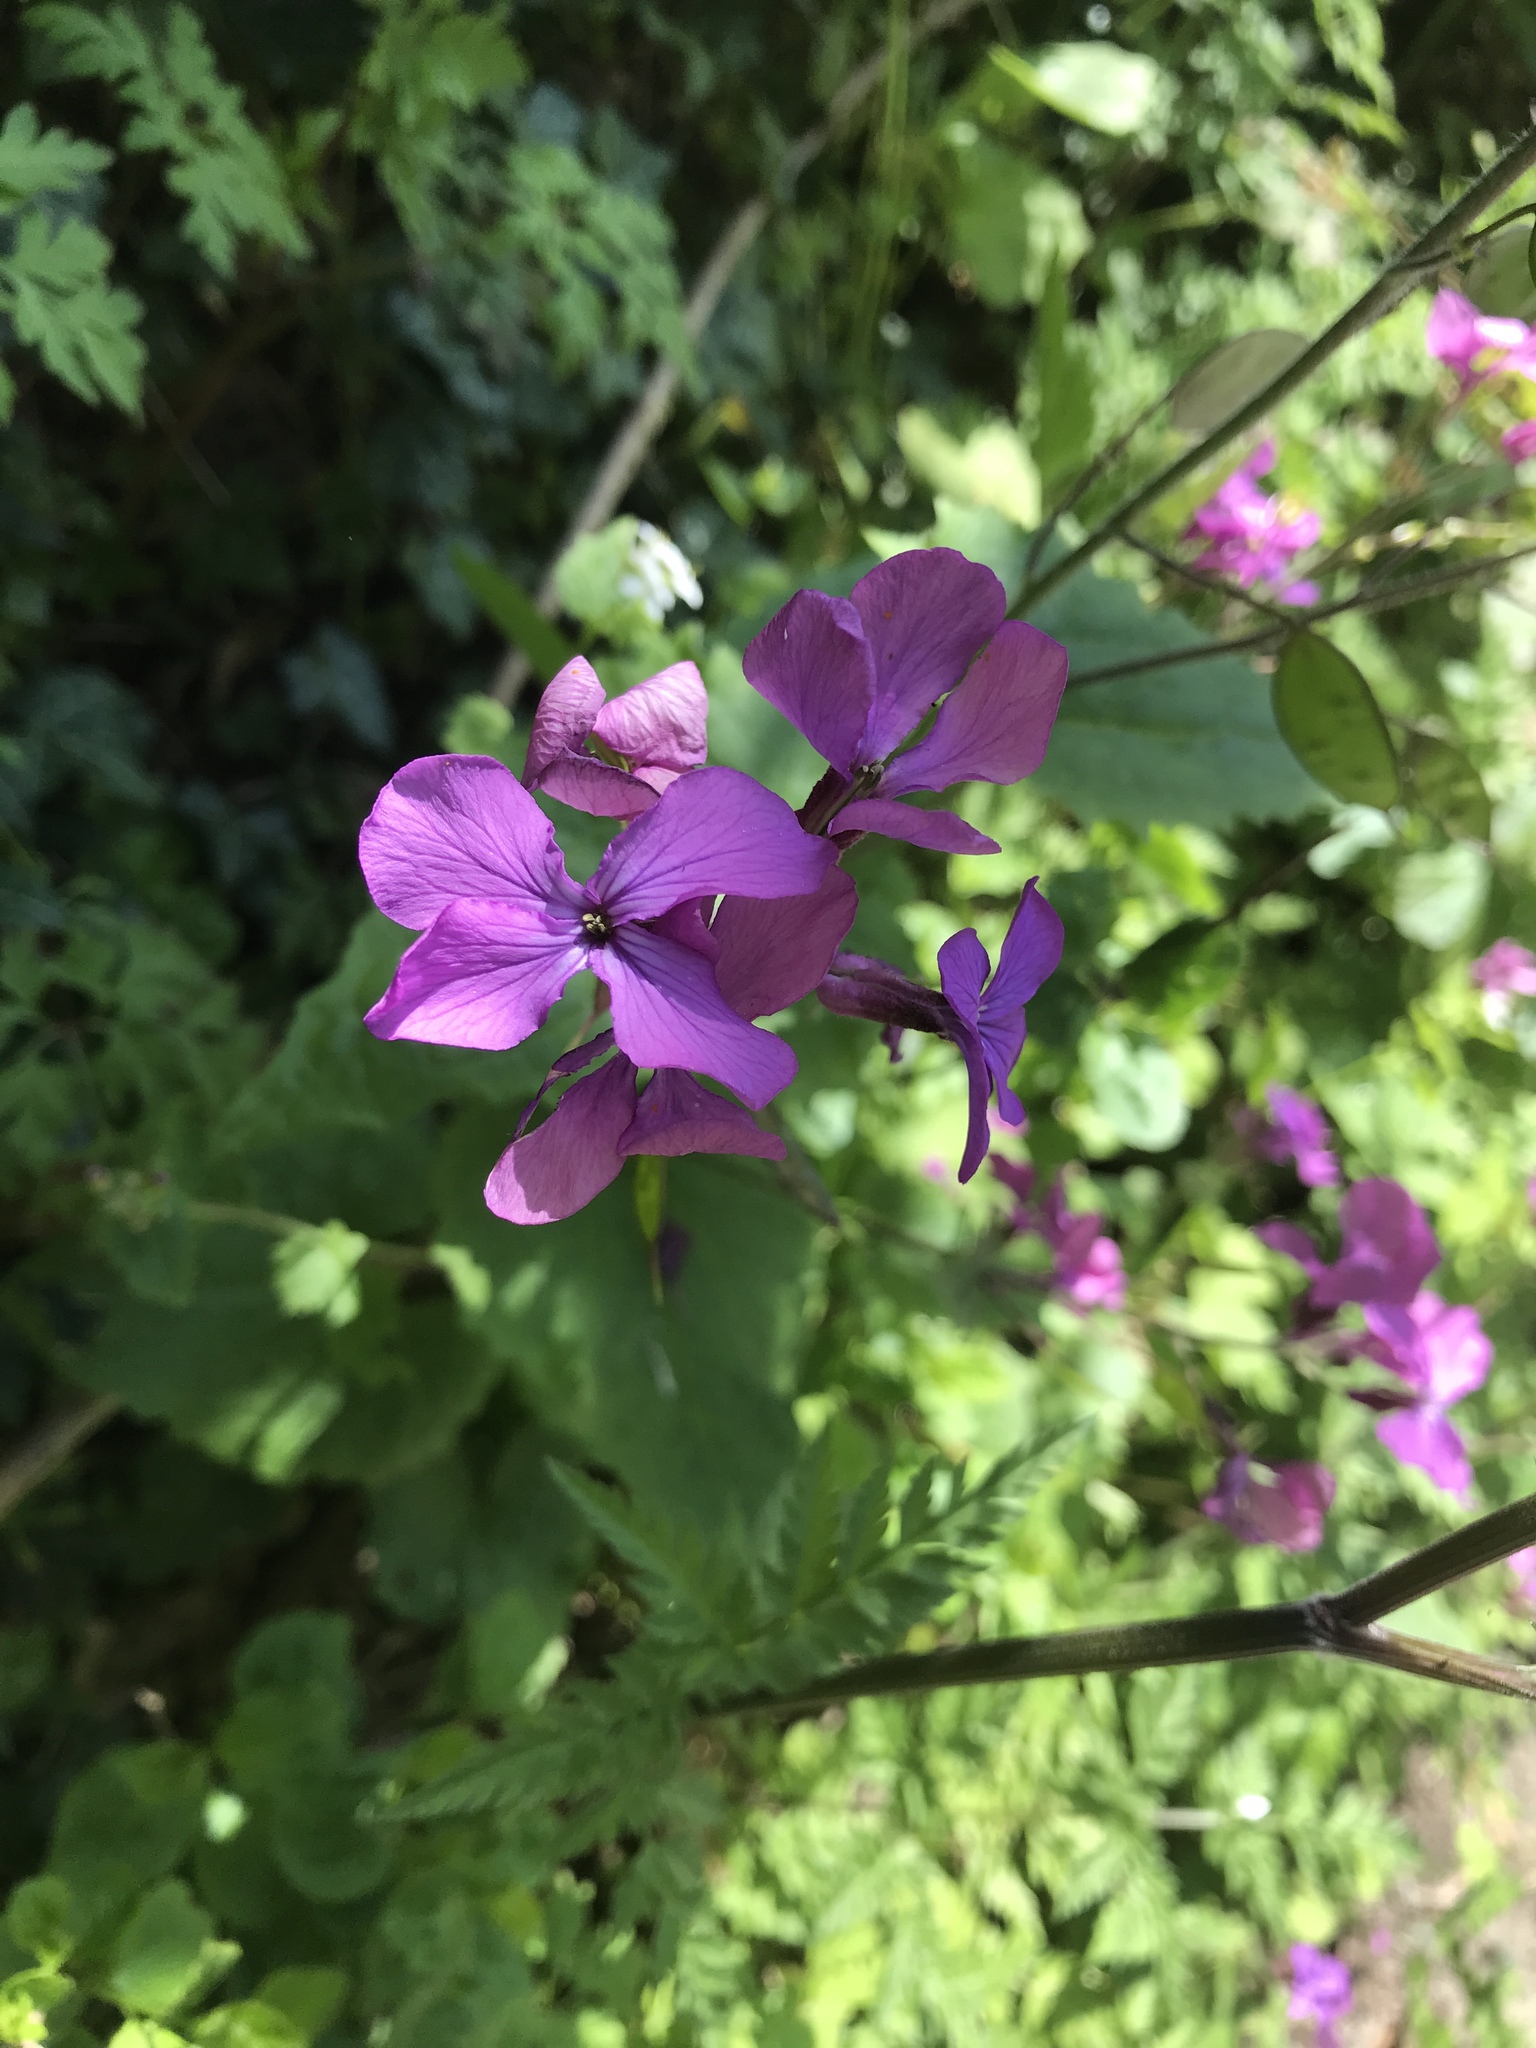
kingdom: Plantae
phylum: Tracheophyta
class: Magnoliopsida
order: Brassicales
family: Brassicaceae
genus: Lunaria
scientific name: Lunaria annua
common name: Honesty
